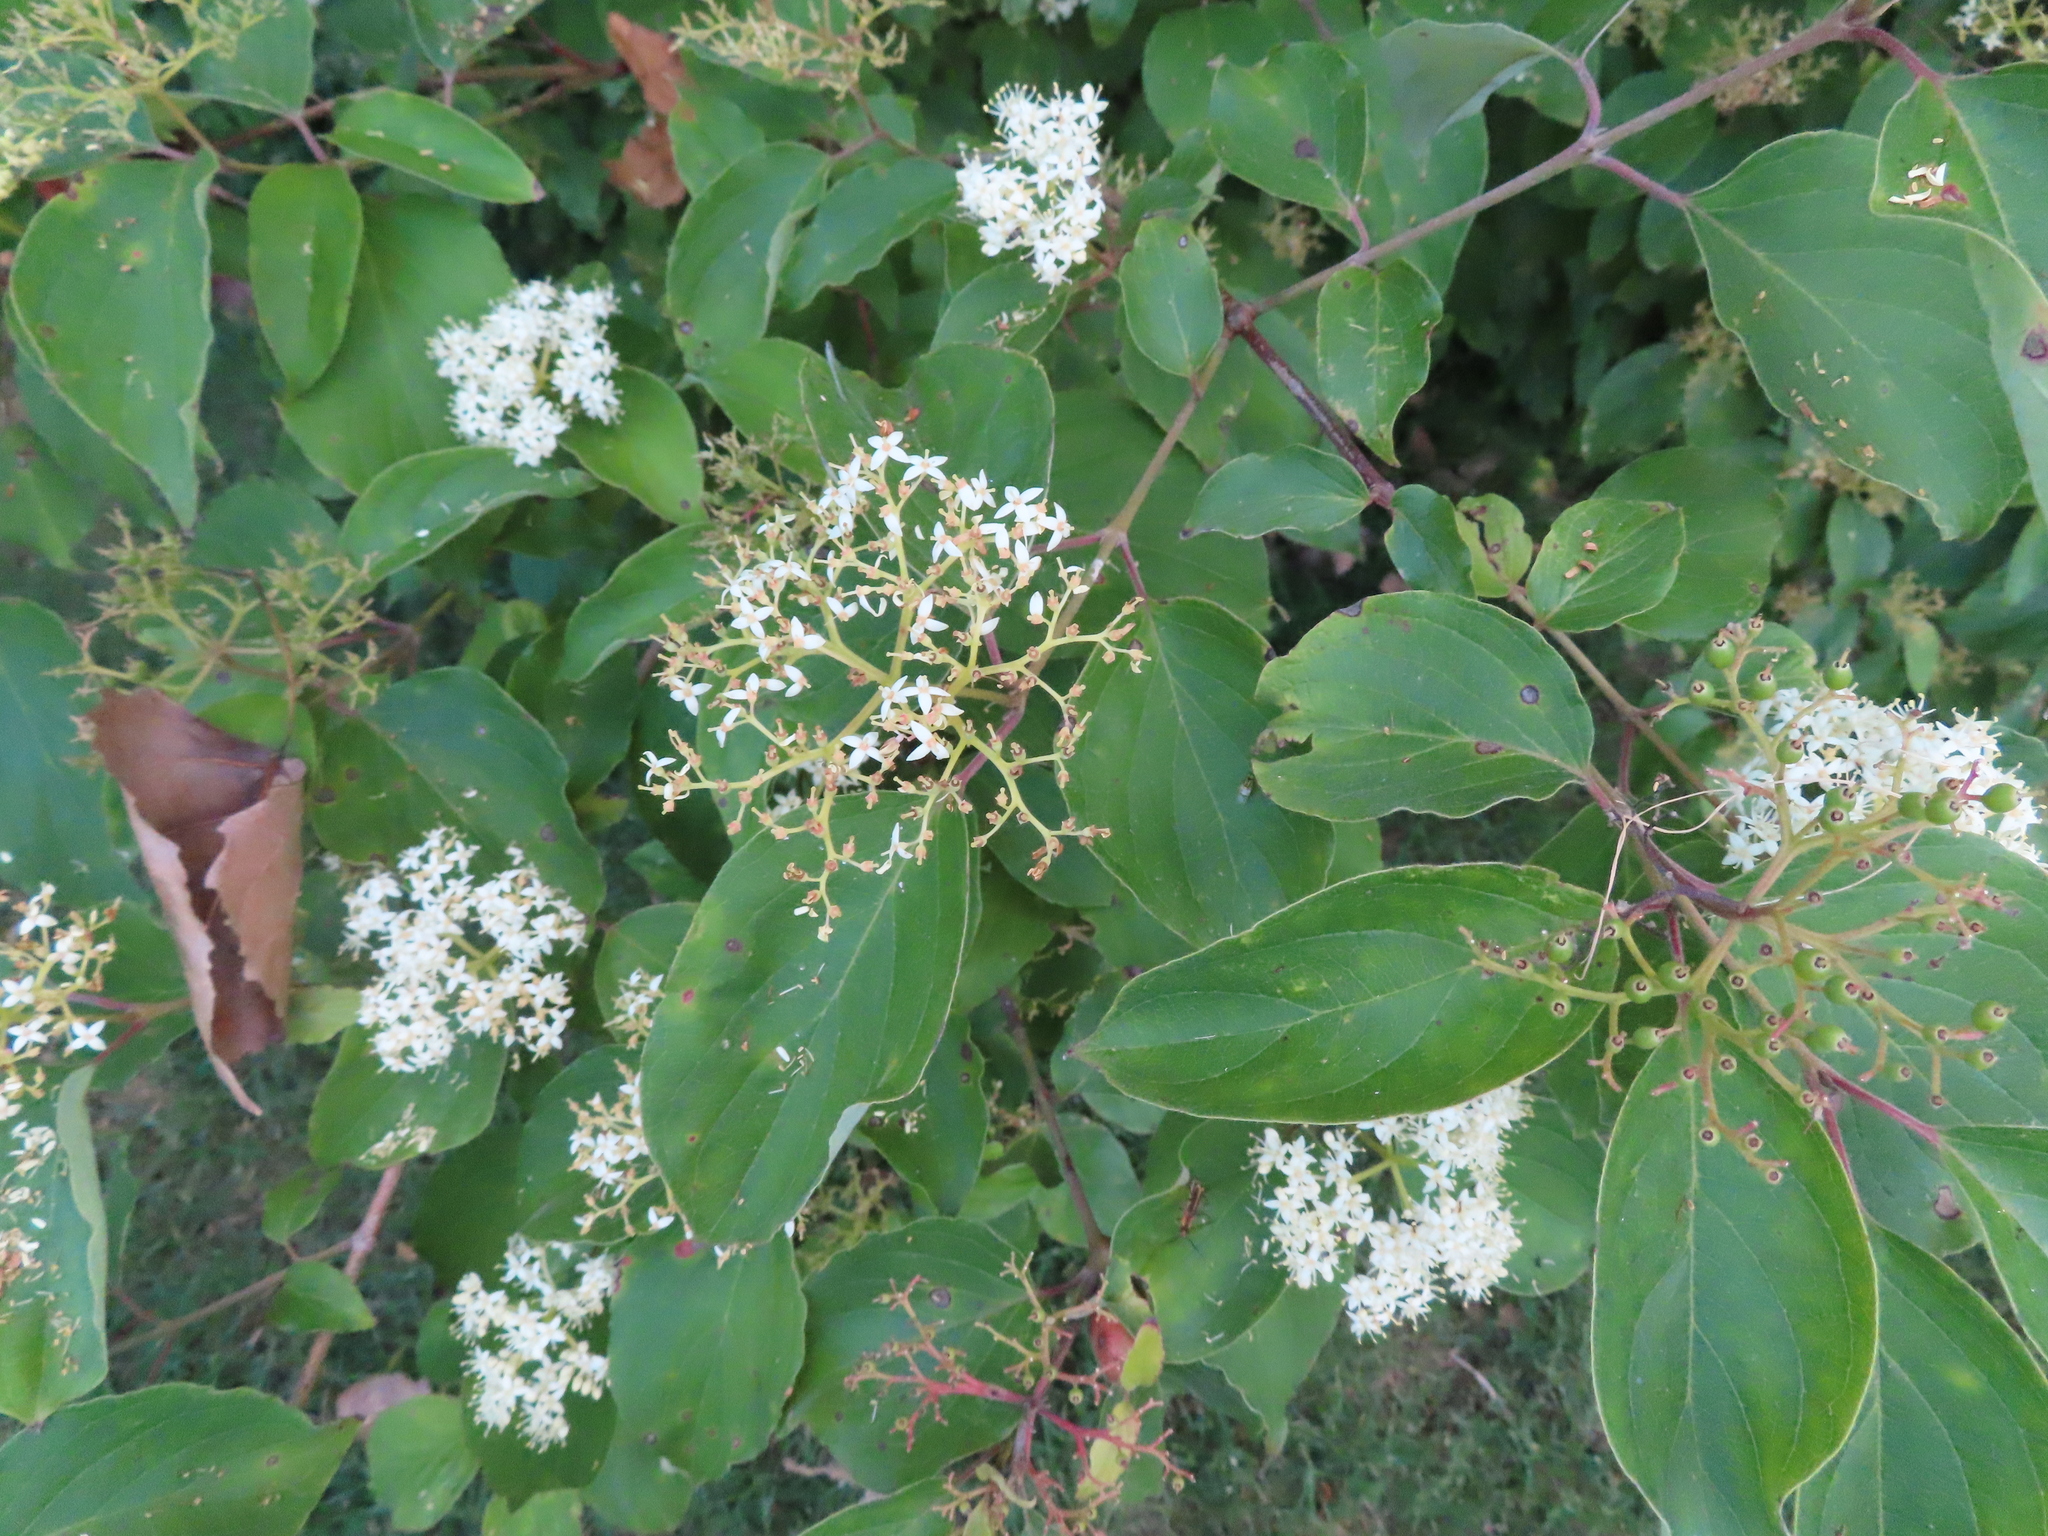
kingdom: Plantae
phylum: Tracheophyta
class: Magnoliopsida
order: Cornales
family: Cornaceae
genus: Cornus
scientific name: Cornus drummondii
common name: Rough-leaf dogwood
